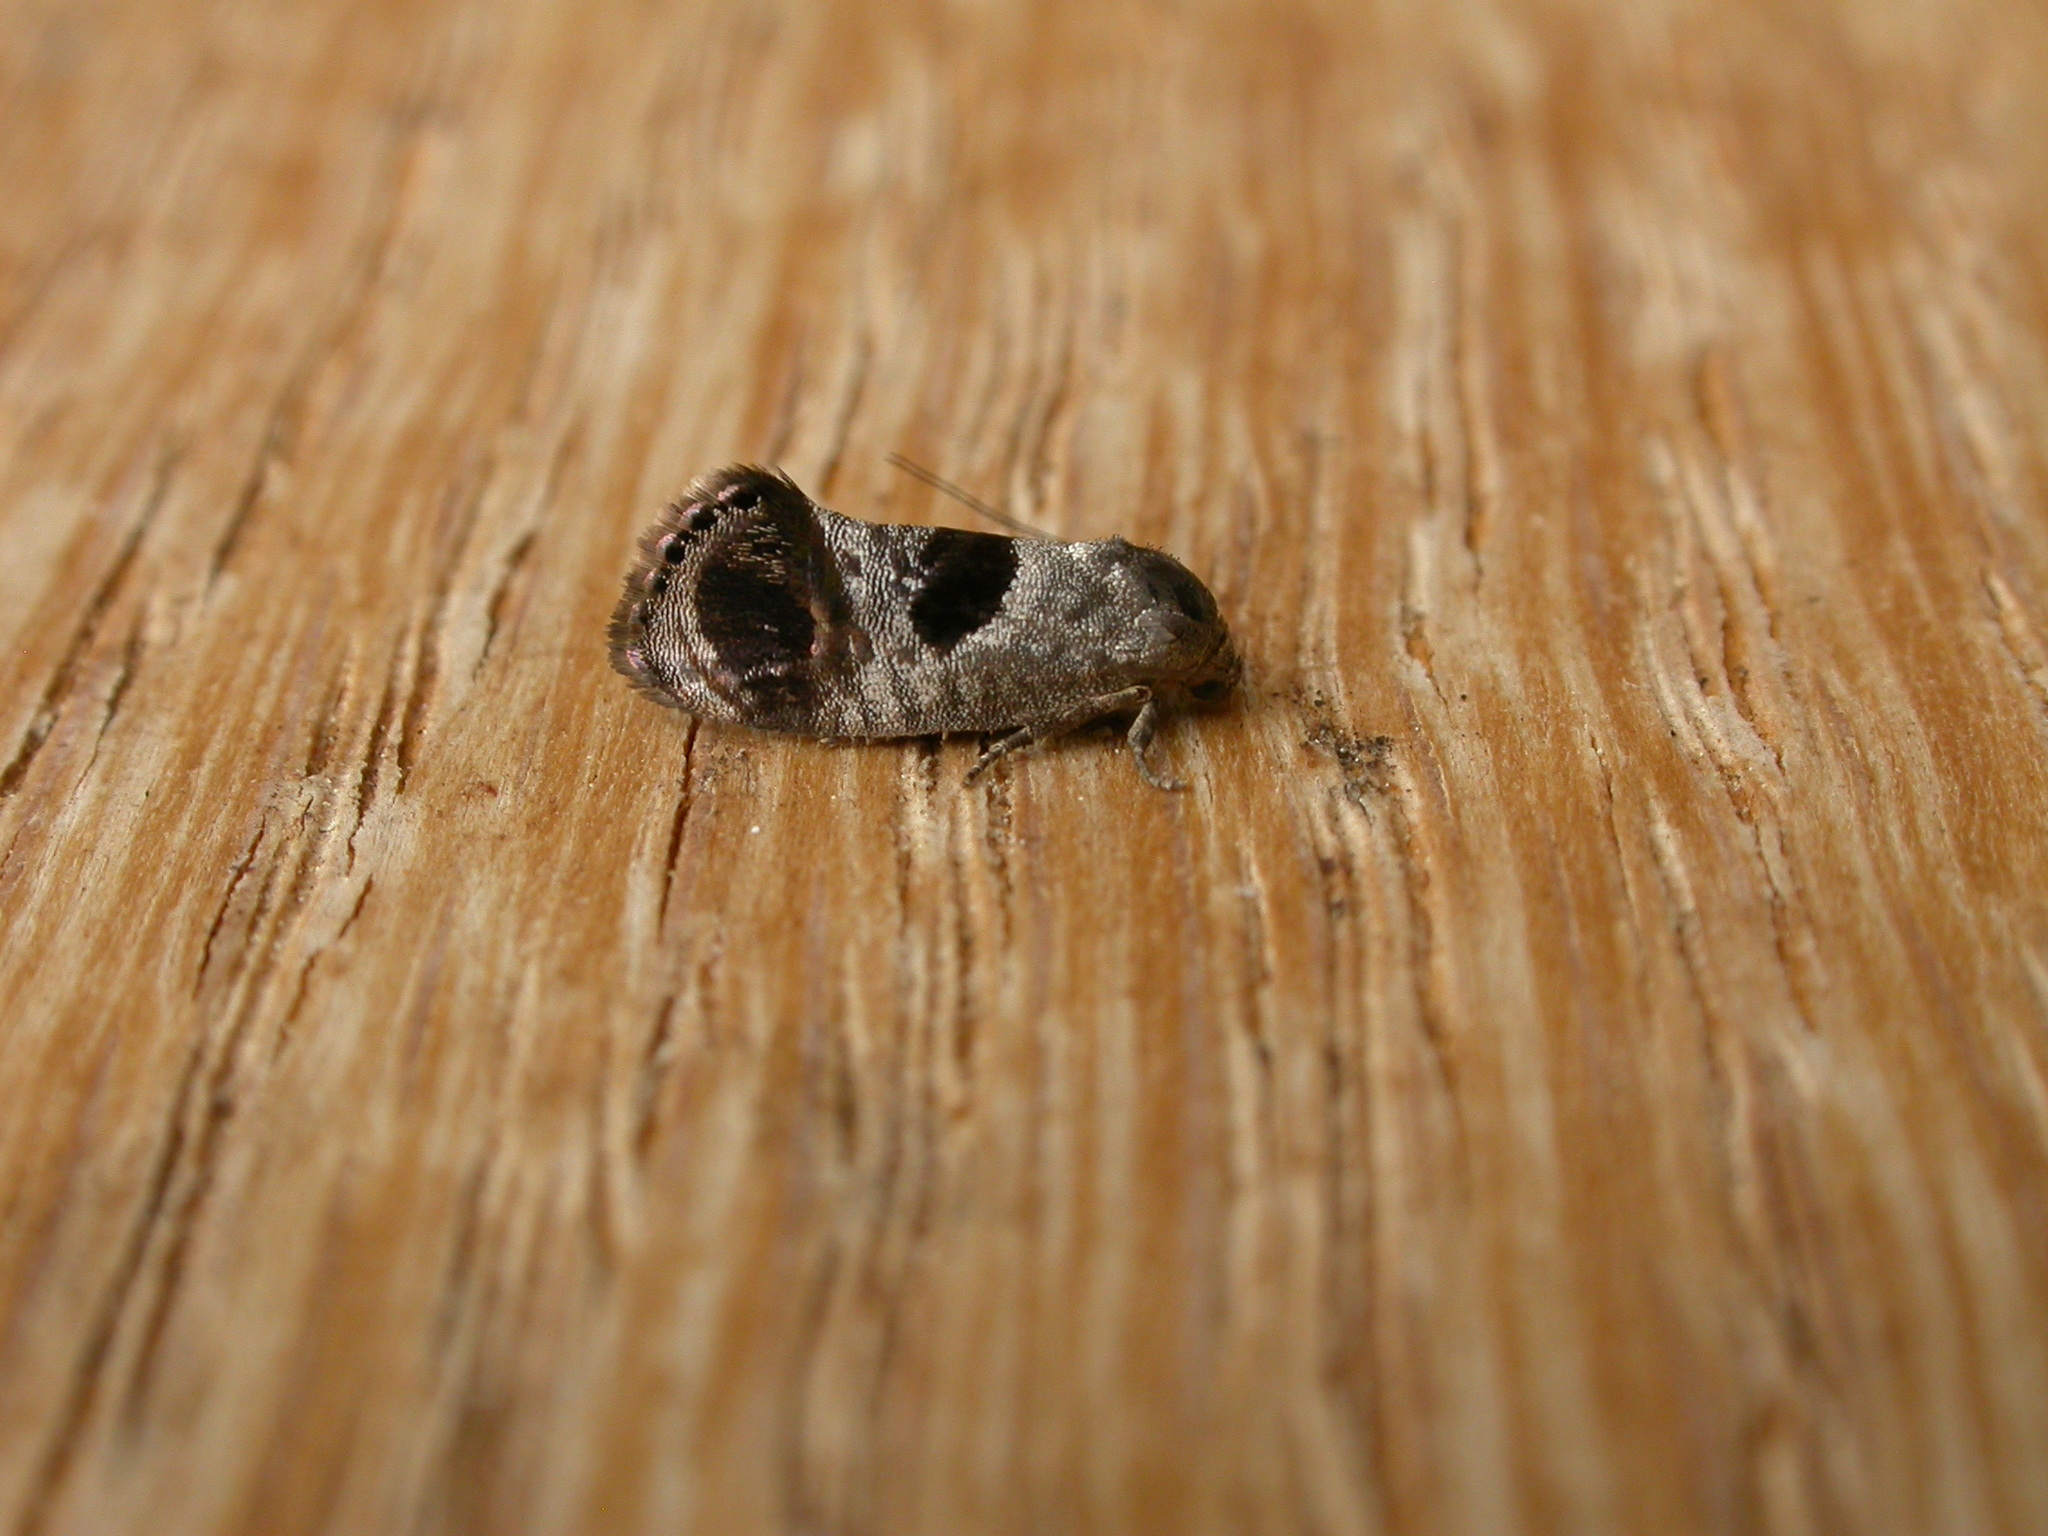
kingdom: Animalia
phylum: Arthropoda
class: Insecta
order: Lepidoptera
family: Depressariidae
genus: Eupselia
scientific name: Eupselia beatella
